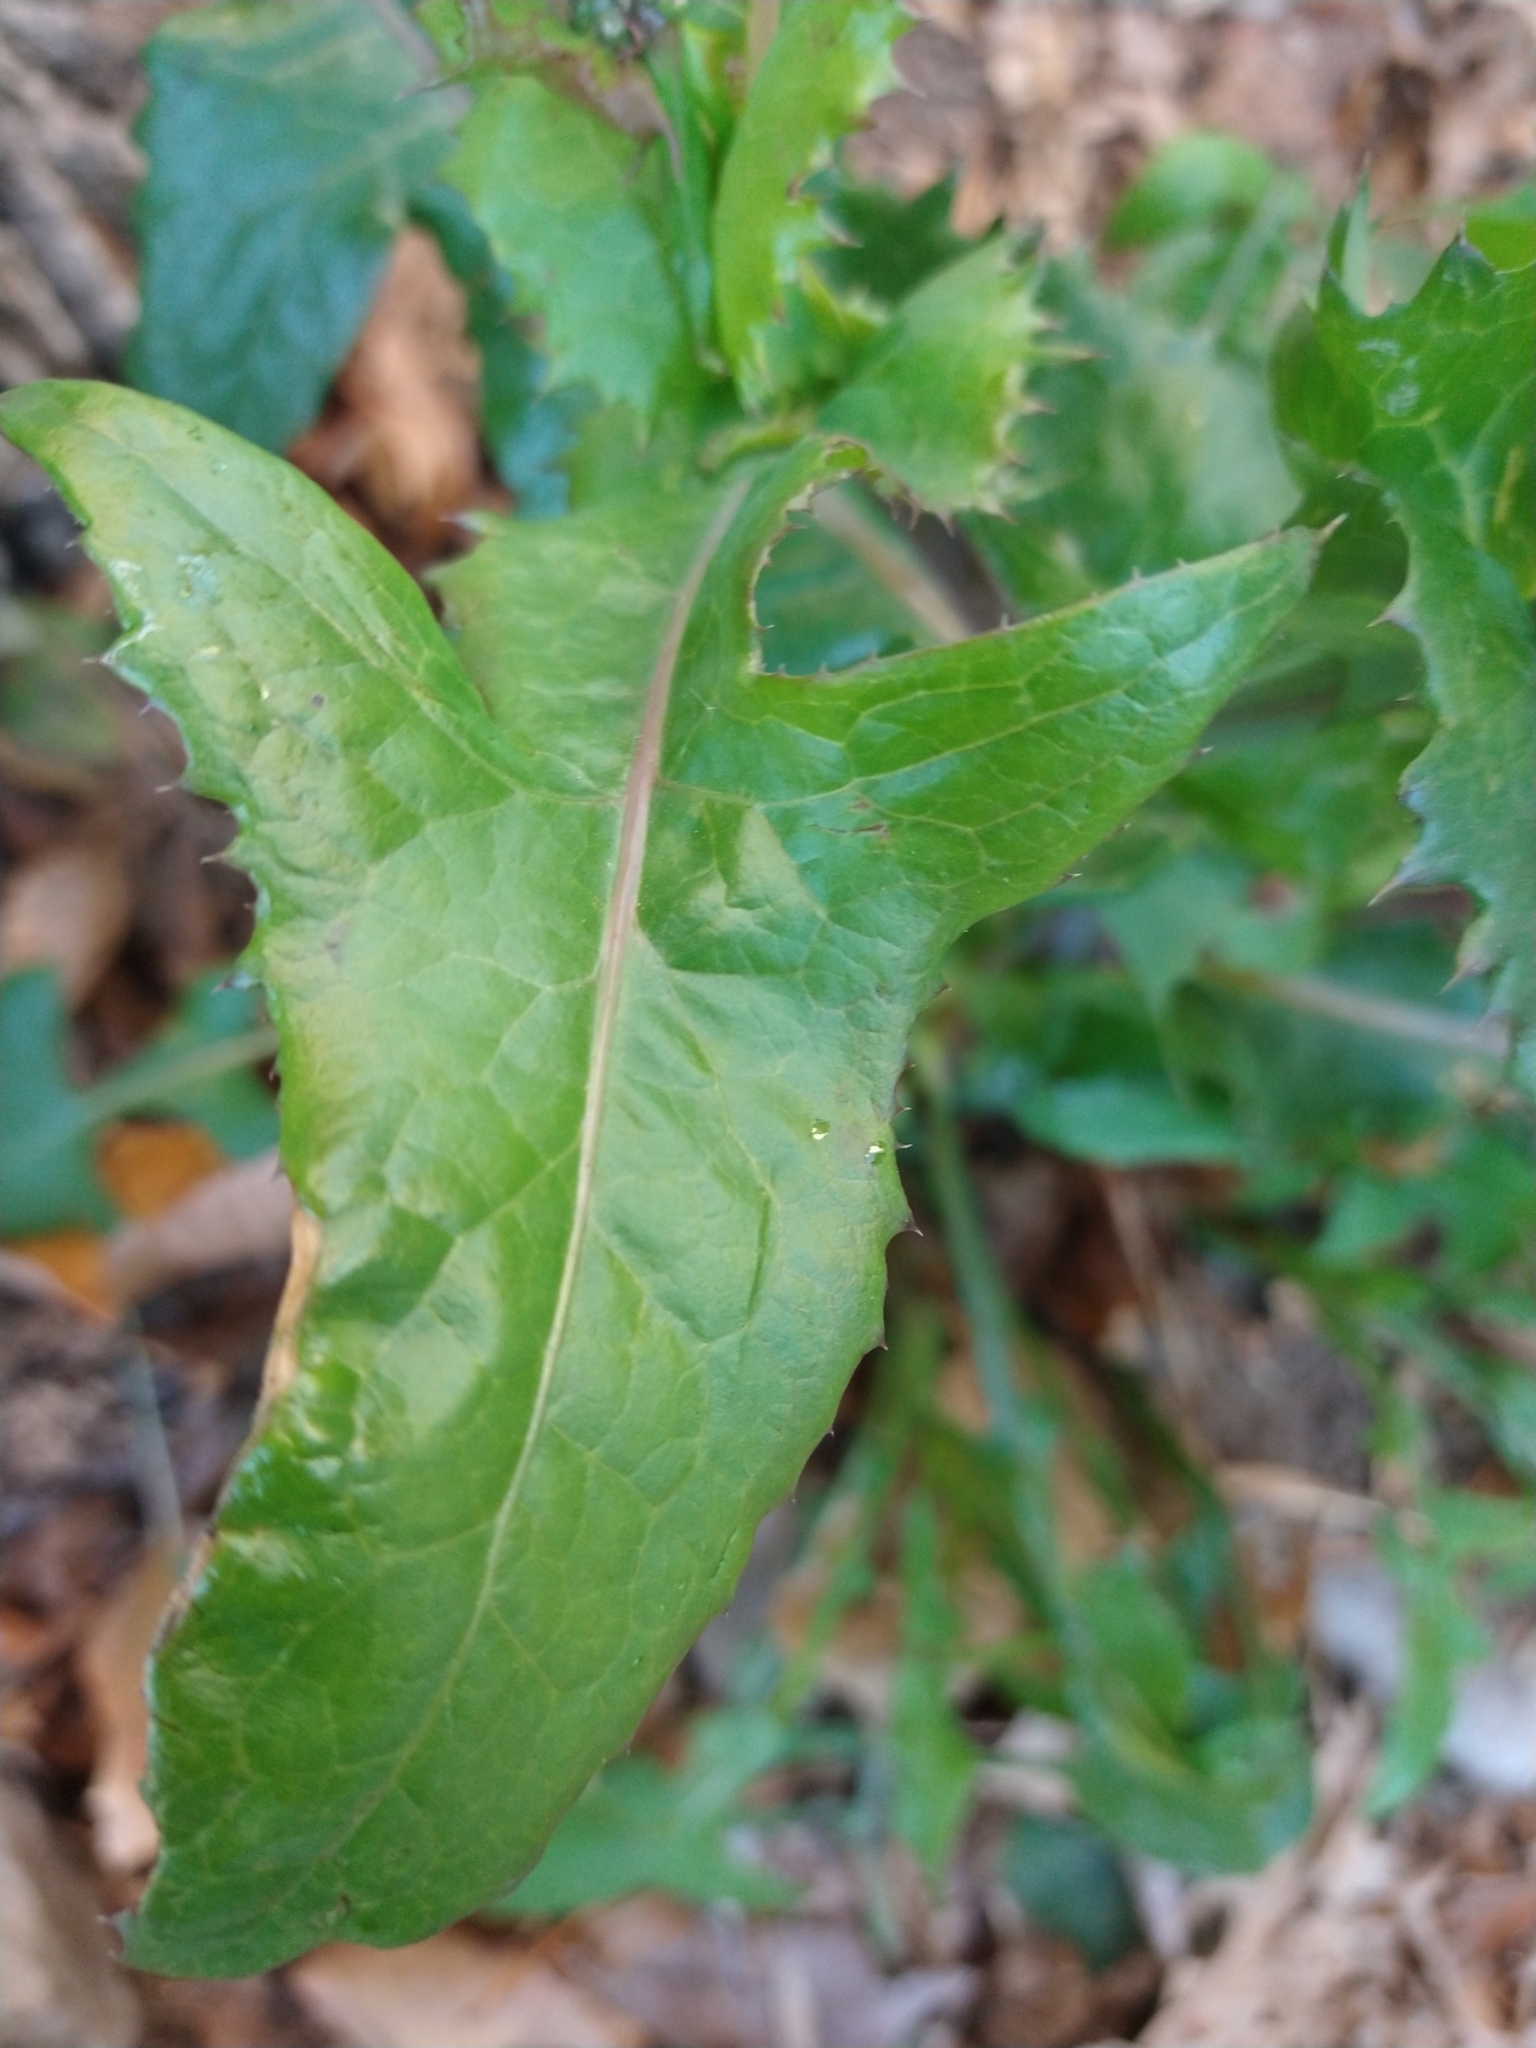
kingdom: Plantae
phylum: Tracheophyta
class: Magnoliopsida
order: Asterales
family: Asteraceae
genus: Sonchus
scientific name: Sonchus oleraceus
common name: Common sowthistle
